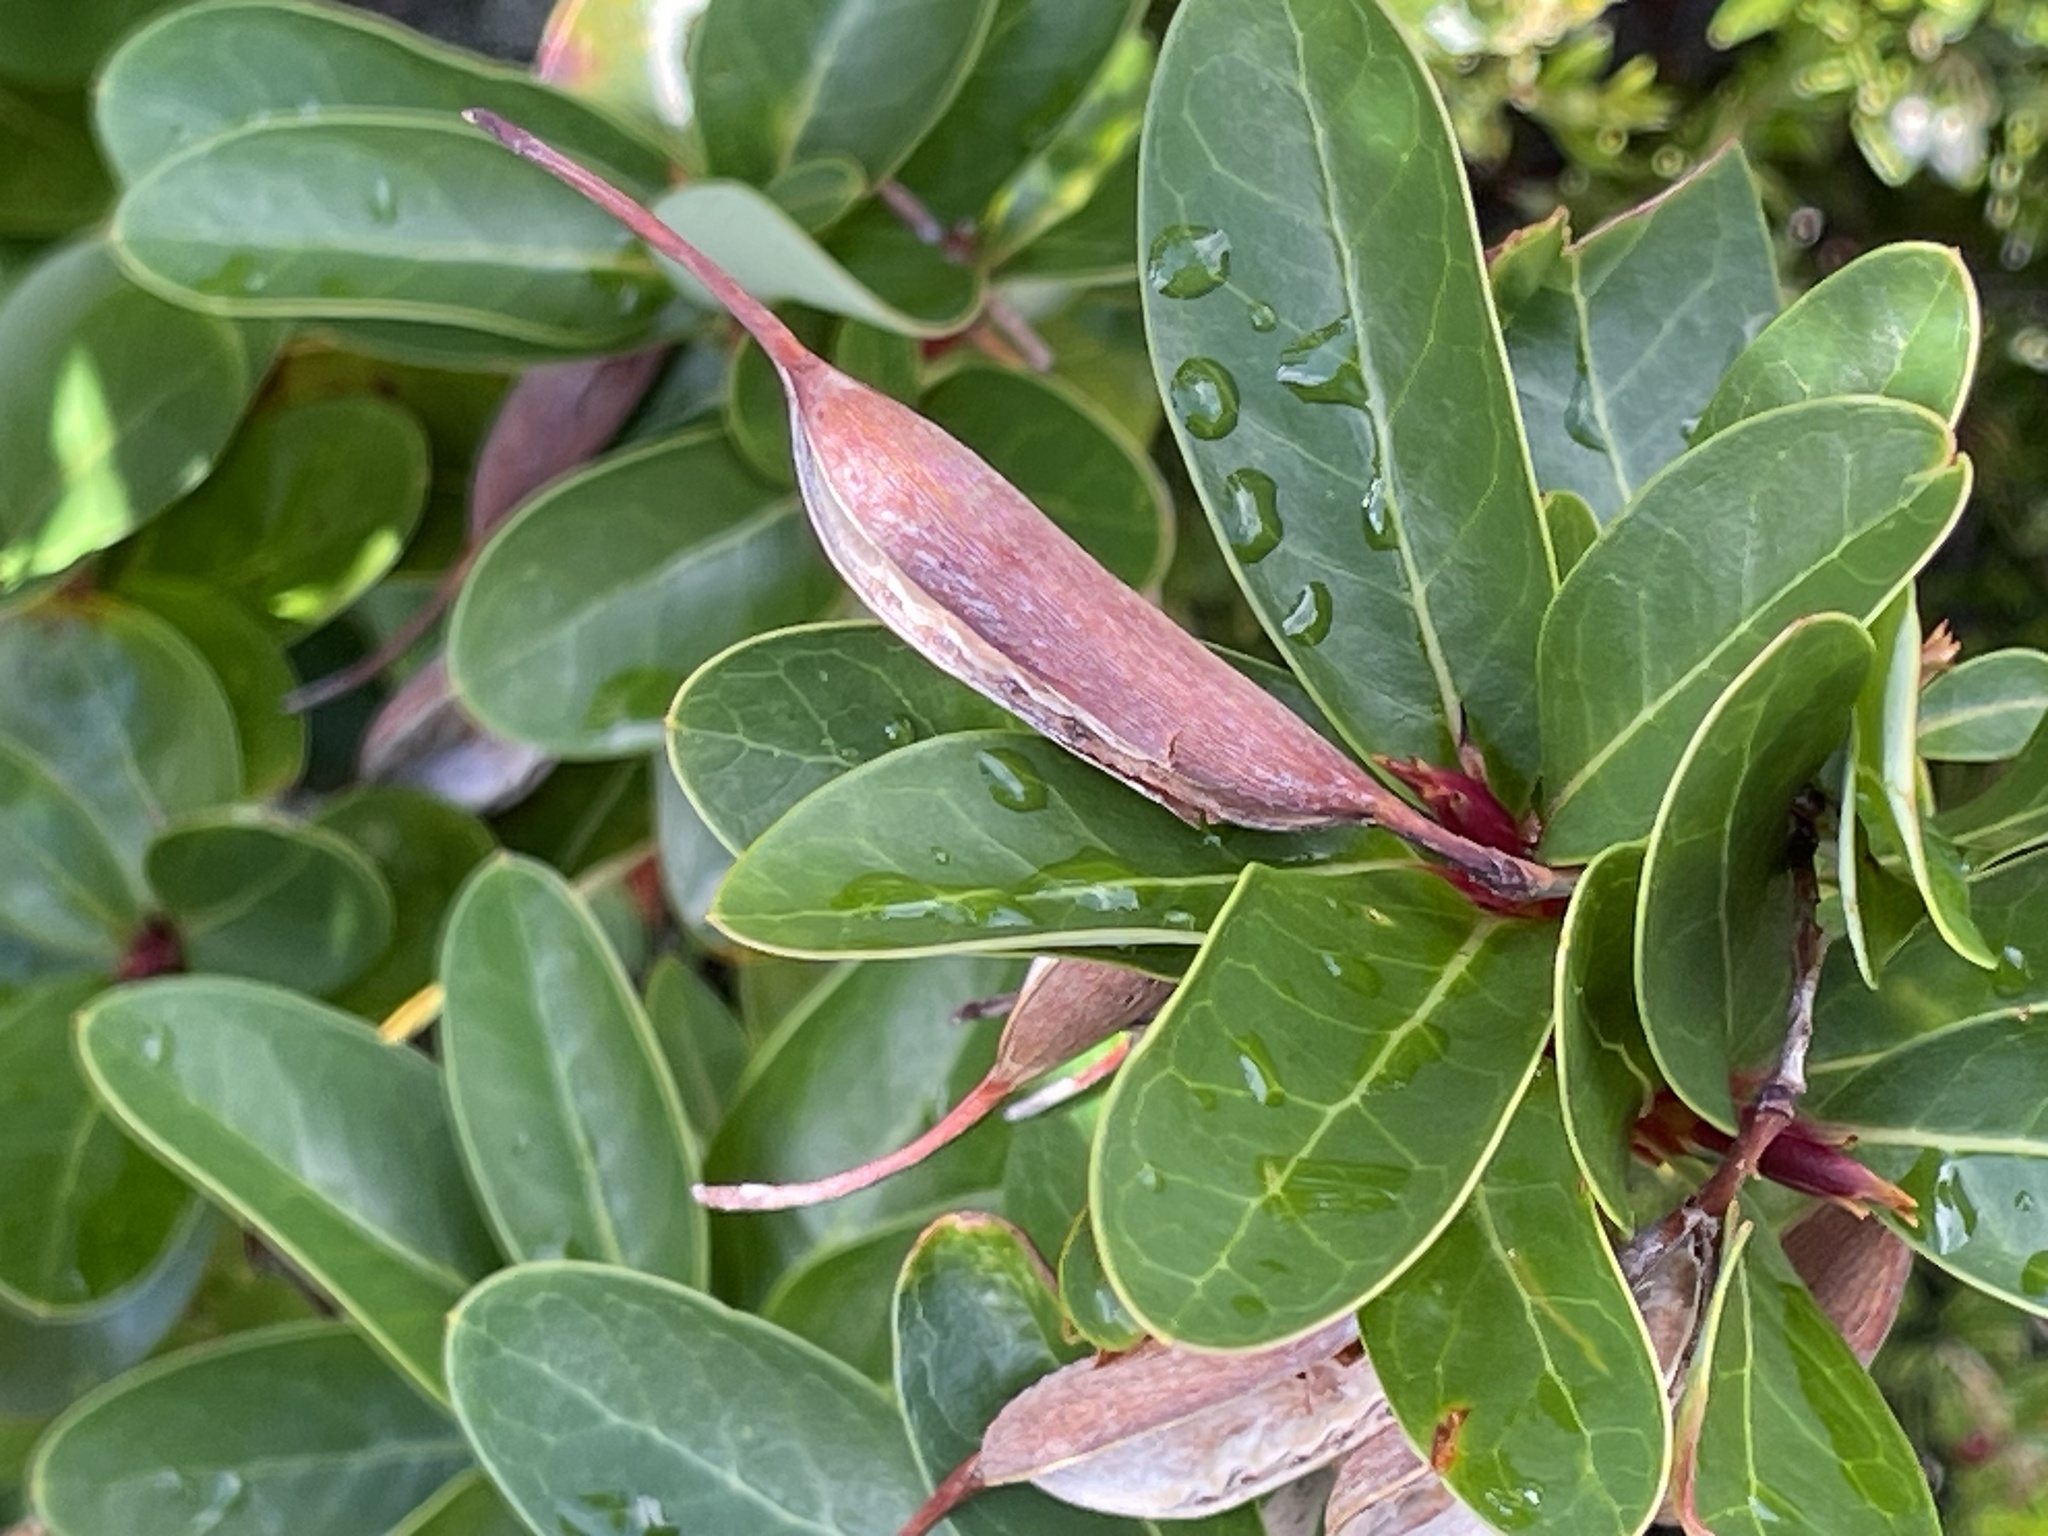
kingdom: Plantae
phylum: Tracheophyta
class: Magnoliopsida
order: Proteales
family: Proteaceae
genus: Embothrium
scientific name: Embothrium coccineum
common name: Chilean firebush
